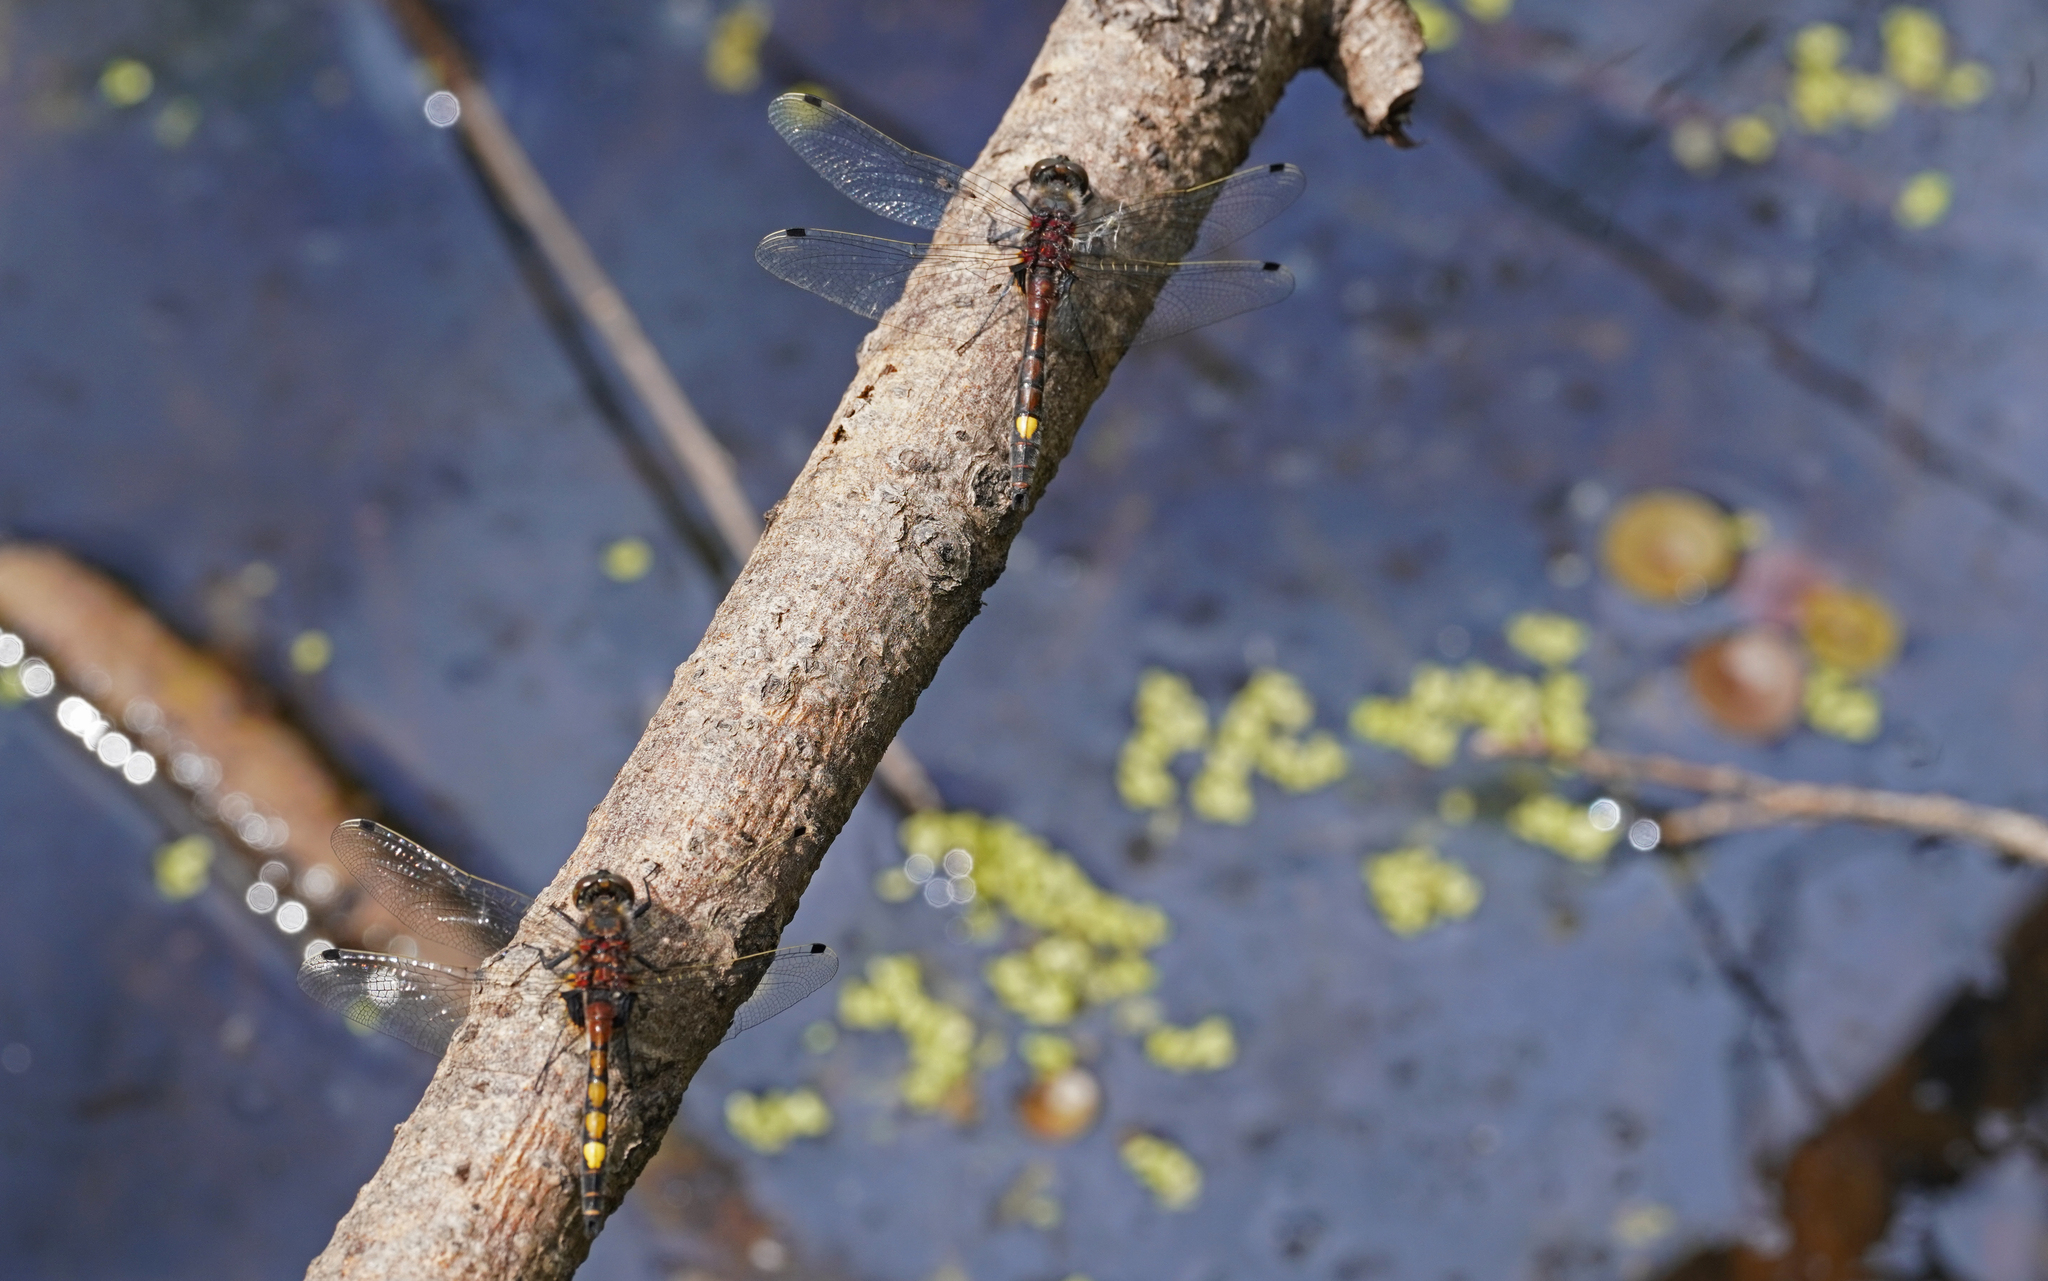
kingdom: Animalia
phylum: Arthropoda
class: Insecta
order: Odonata
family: Libellulidae
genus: Leucorrhinia
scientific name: Leucorrhinia pectoralis
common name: Yellow-spotted whiteface
